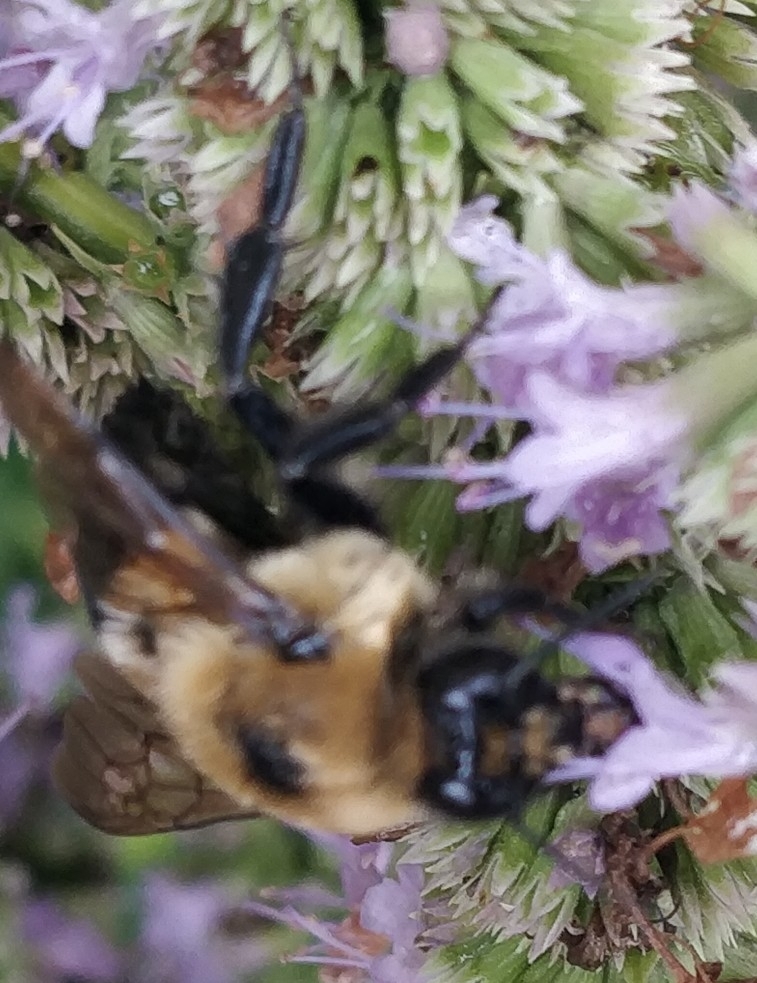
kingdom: Animalia
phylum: Arthropoda
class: Insecta
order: Hymenoptera
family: Apidae
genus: Bombus
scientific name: Bombus griseocollis
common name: Brown-belted bumble bee
